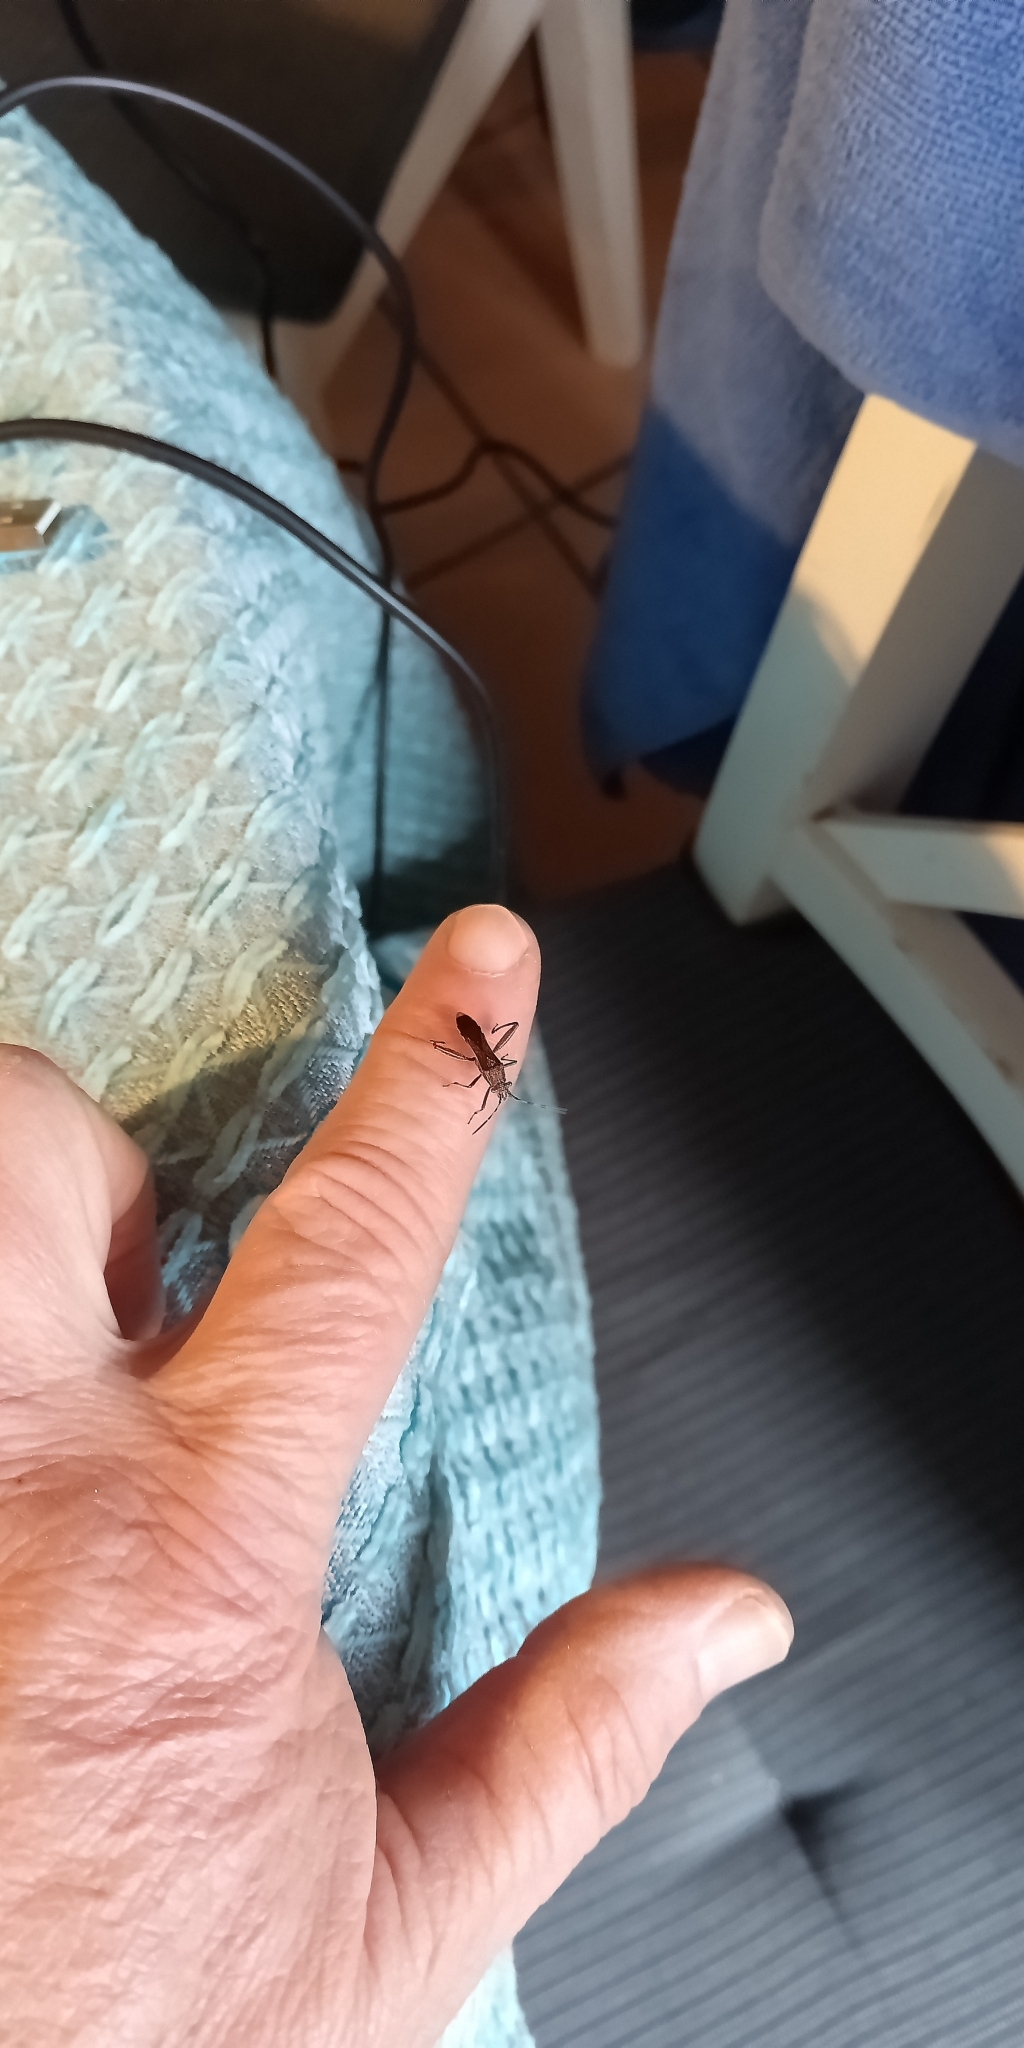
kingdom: Animalia
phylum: Arthropoda
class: Insecta
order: Hemiptera
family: Alydidae
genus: Camptopus
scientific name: Camptopus lateralis
